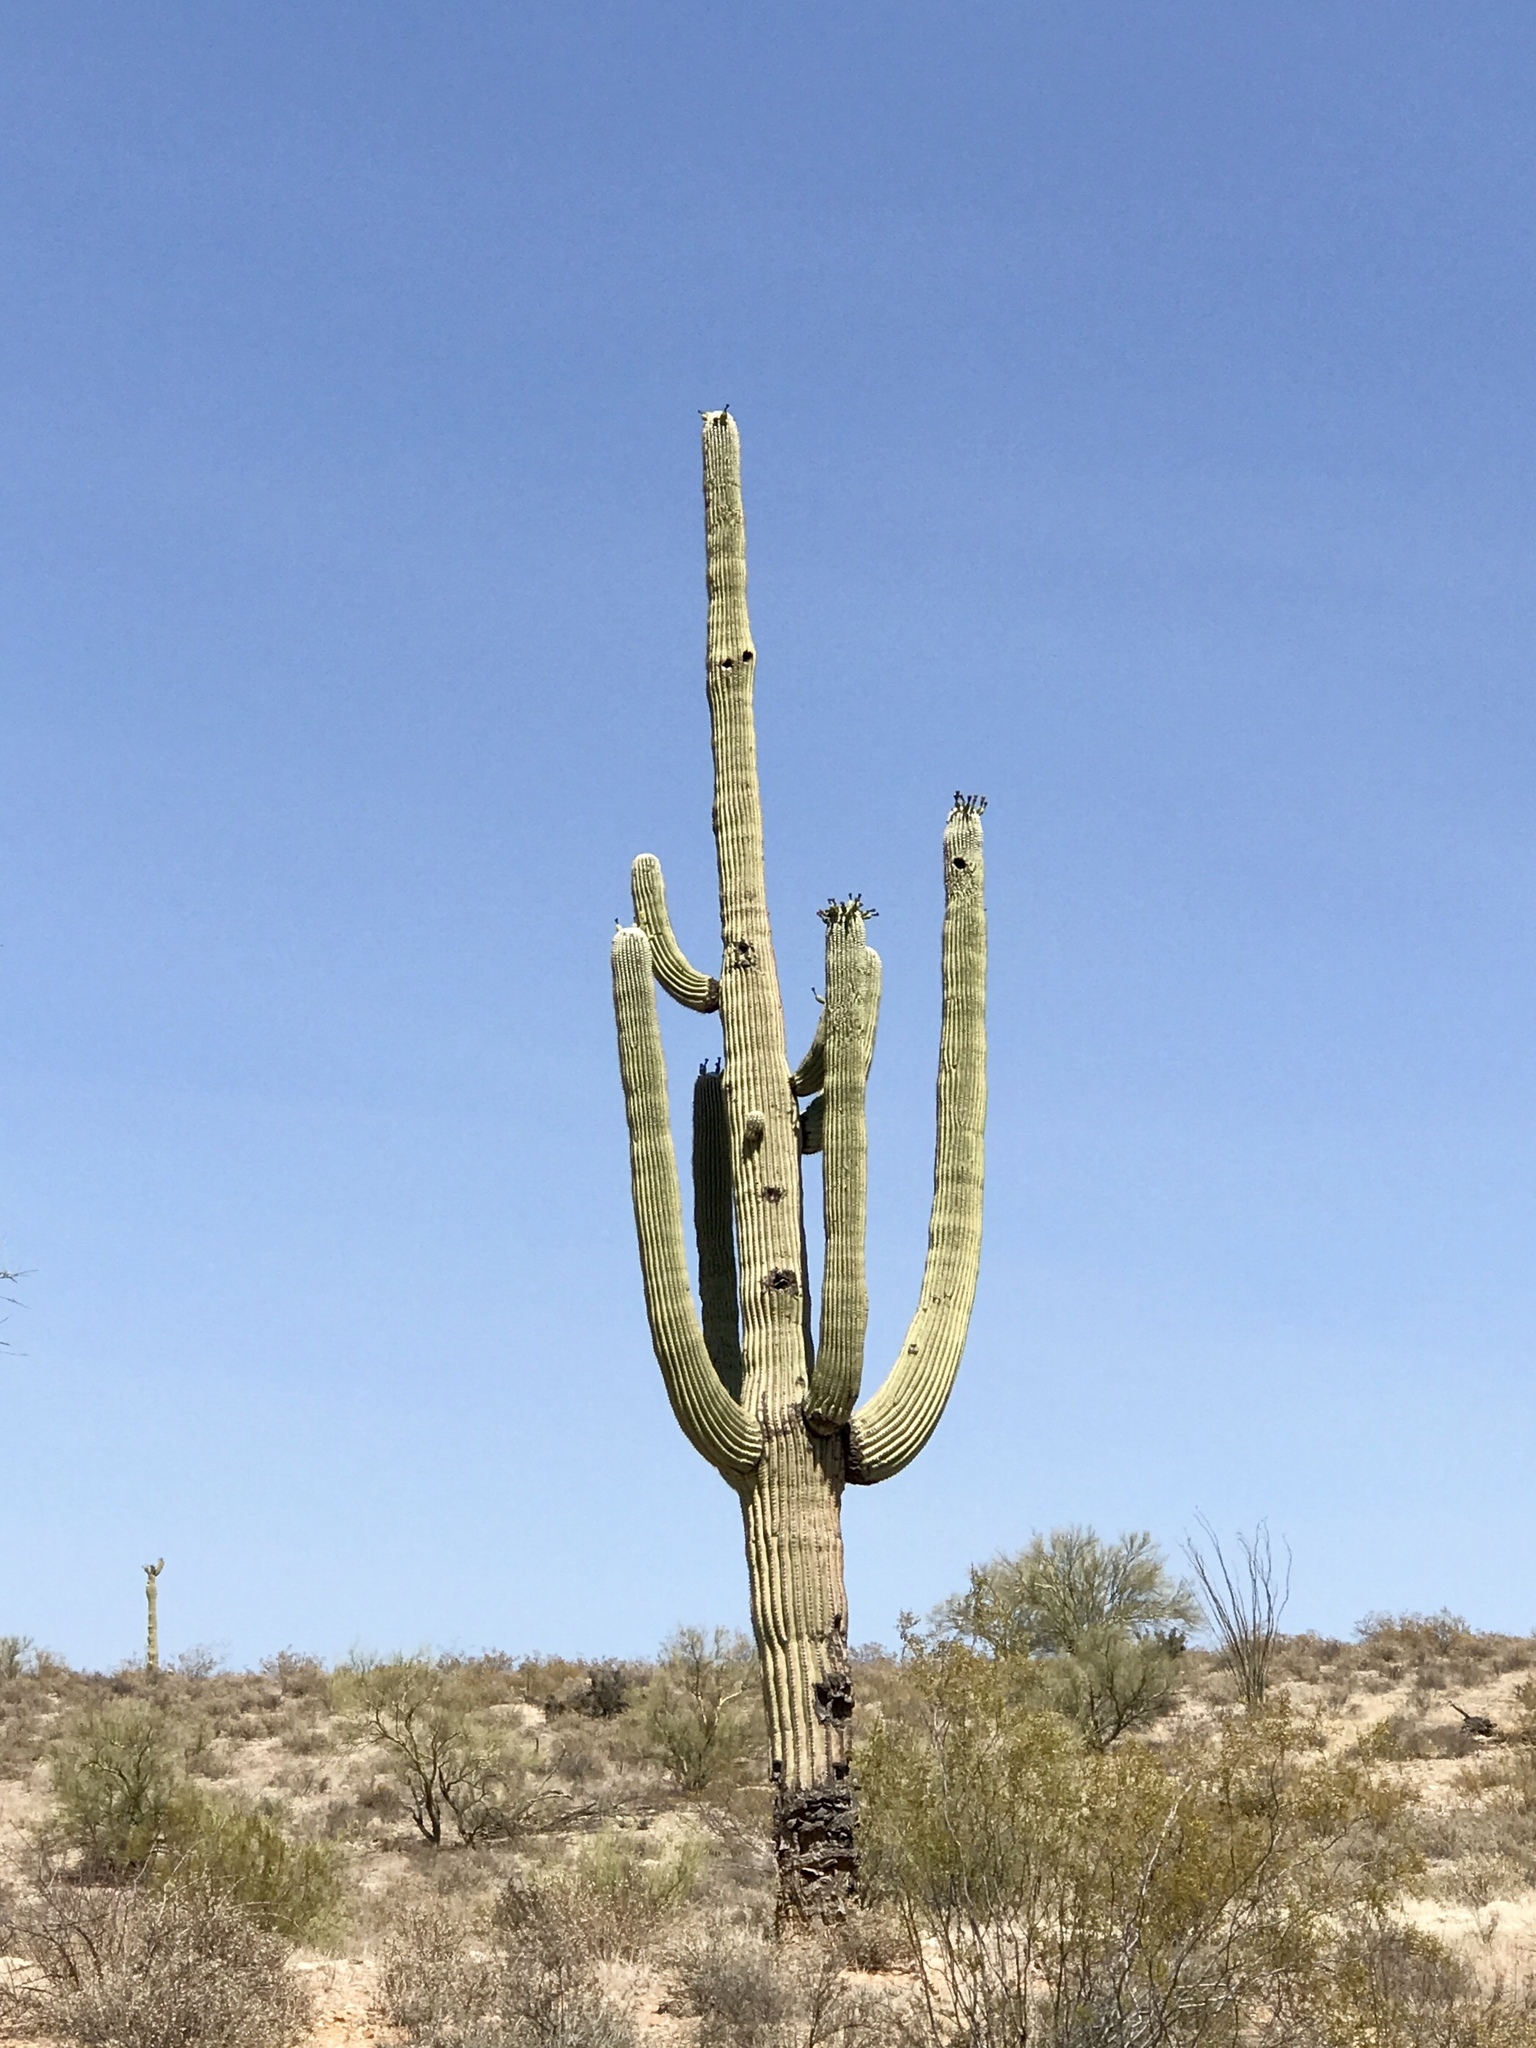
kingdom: Plantae
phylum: Tracheophyta
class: Magnoliopsida
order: Caryophyllales
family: Cactaceae
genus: Carnegiea
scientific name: Carnegiea gigantea
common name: Saguaro
